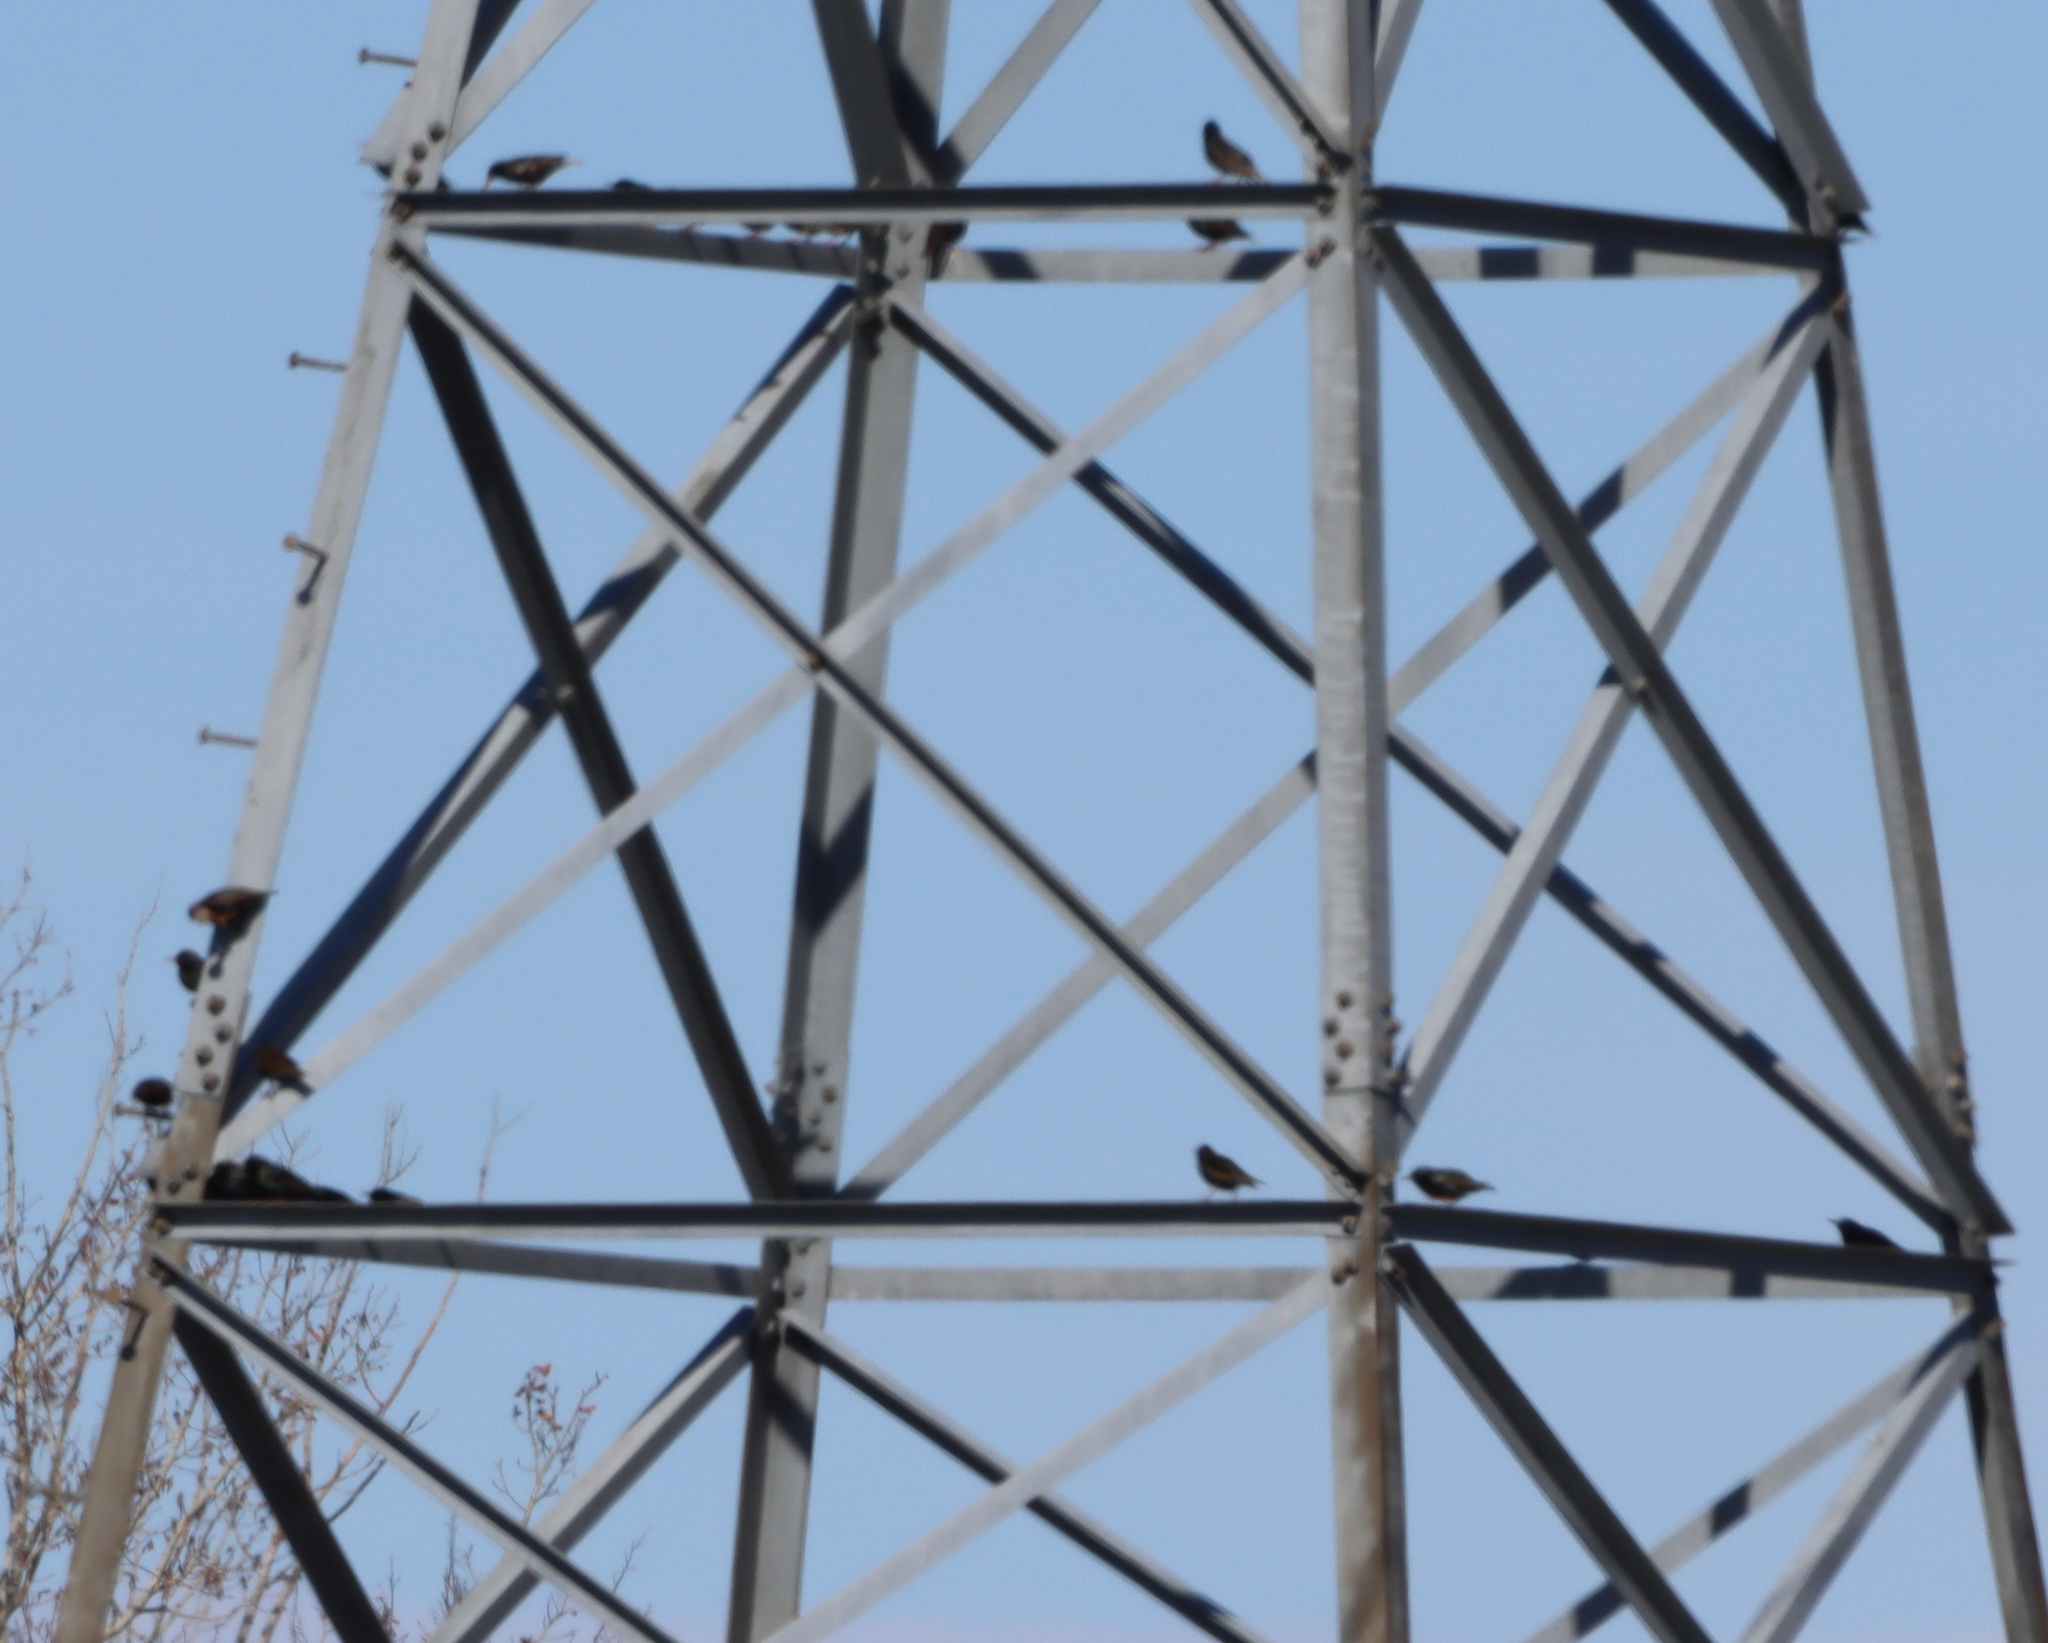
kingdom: Animalia
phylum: Chordata
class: Aves
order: Passeriformes
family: Sturnidae
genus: Sturnus
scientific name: Sturnus vulgaris
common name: Common starling
